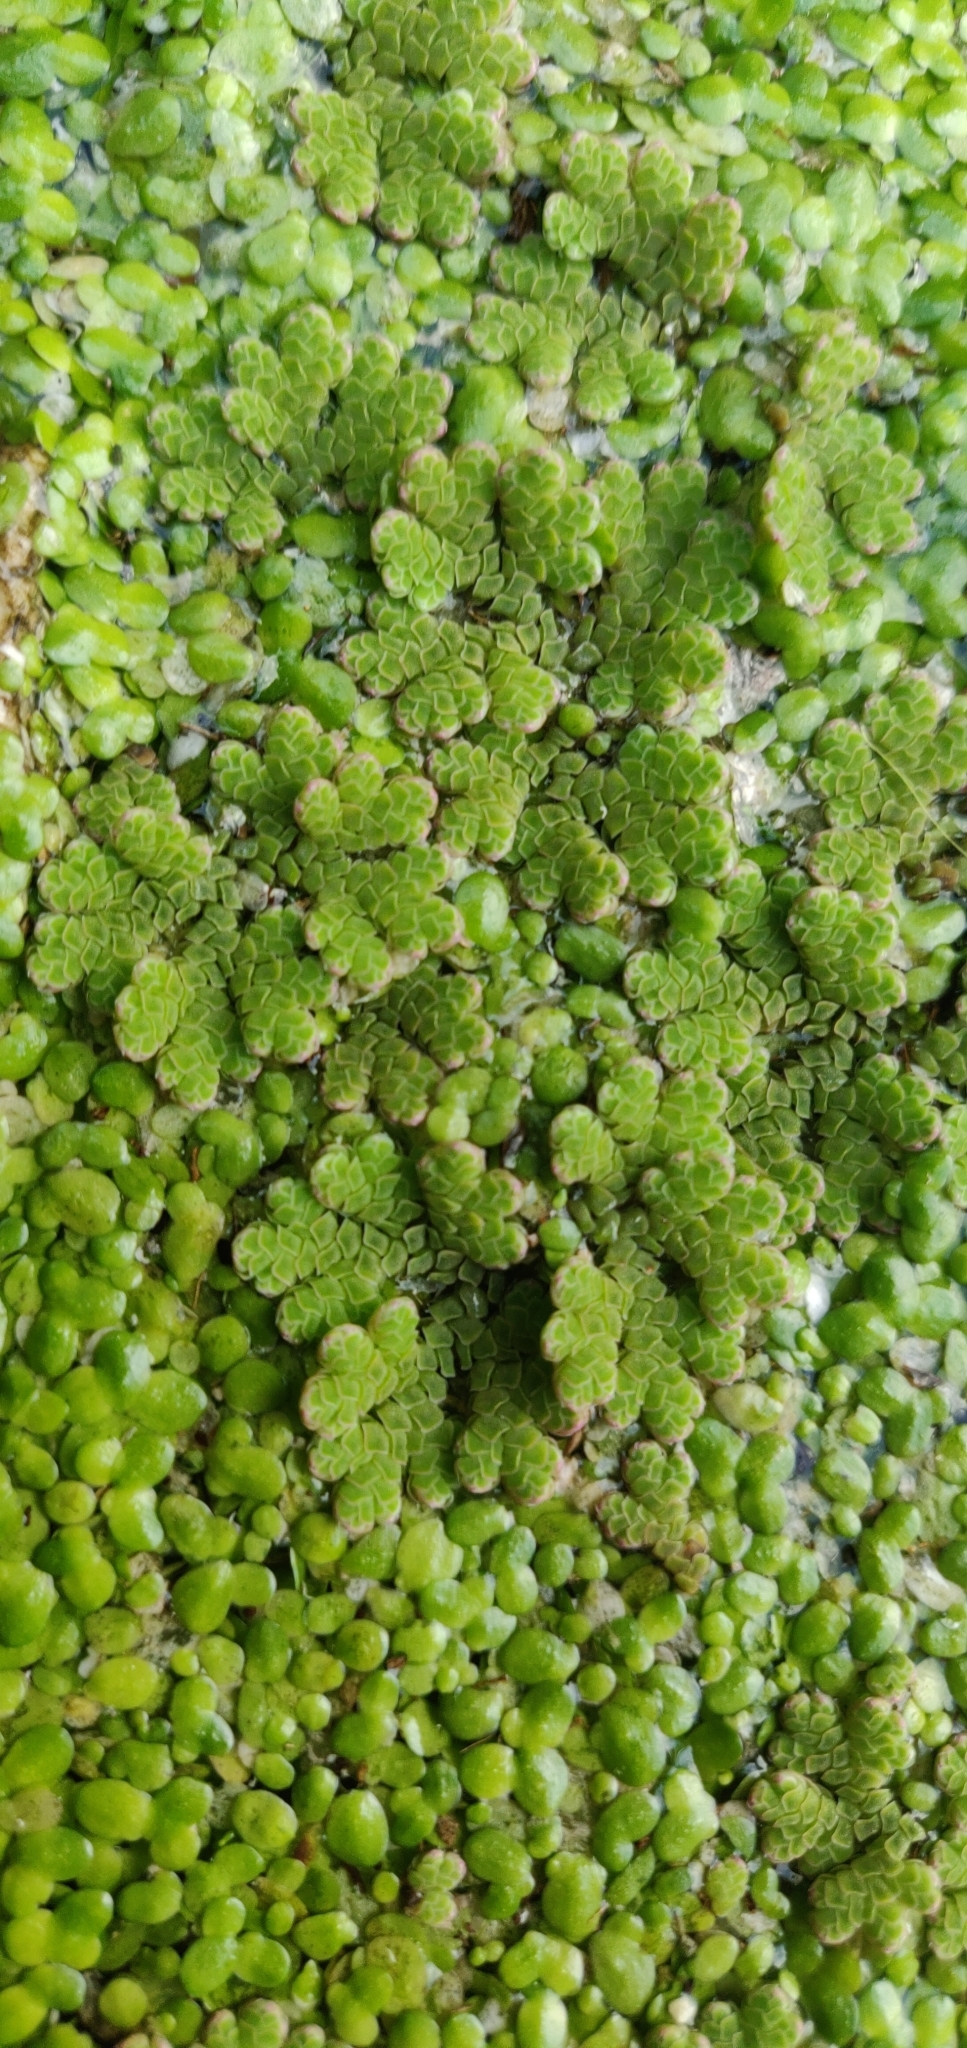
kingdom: Plantae
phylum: Tracheophyta
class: Polypodiopsida
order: Salviniales
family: Salviniaceae
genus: Azolla
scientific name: Azolla rubra
